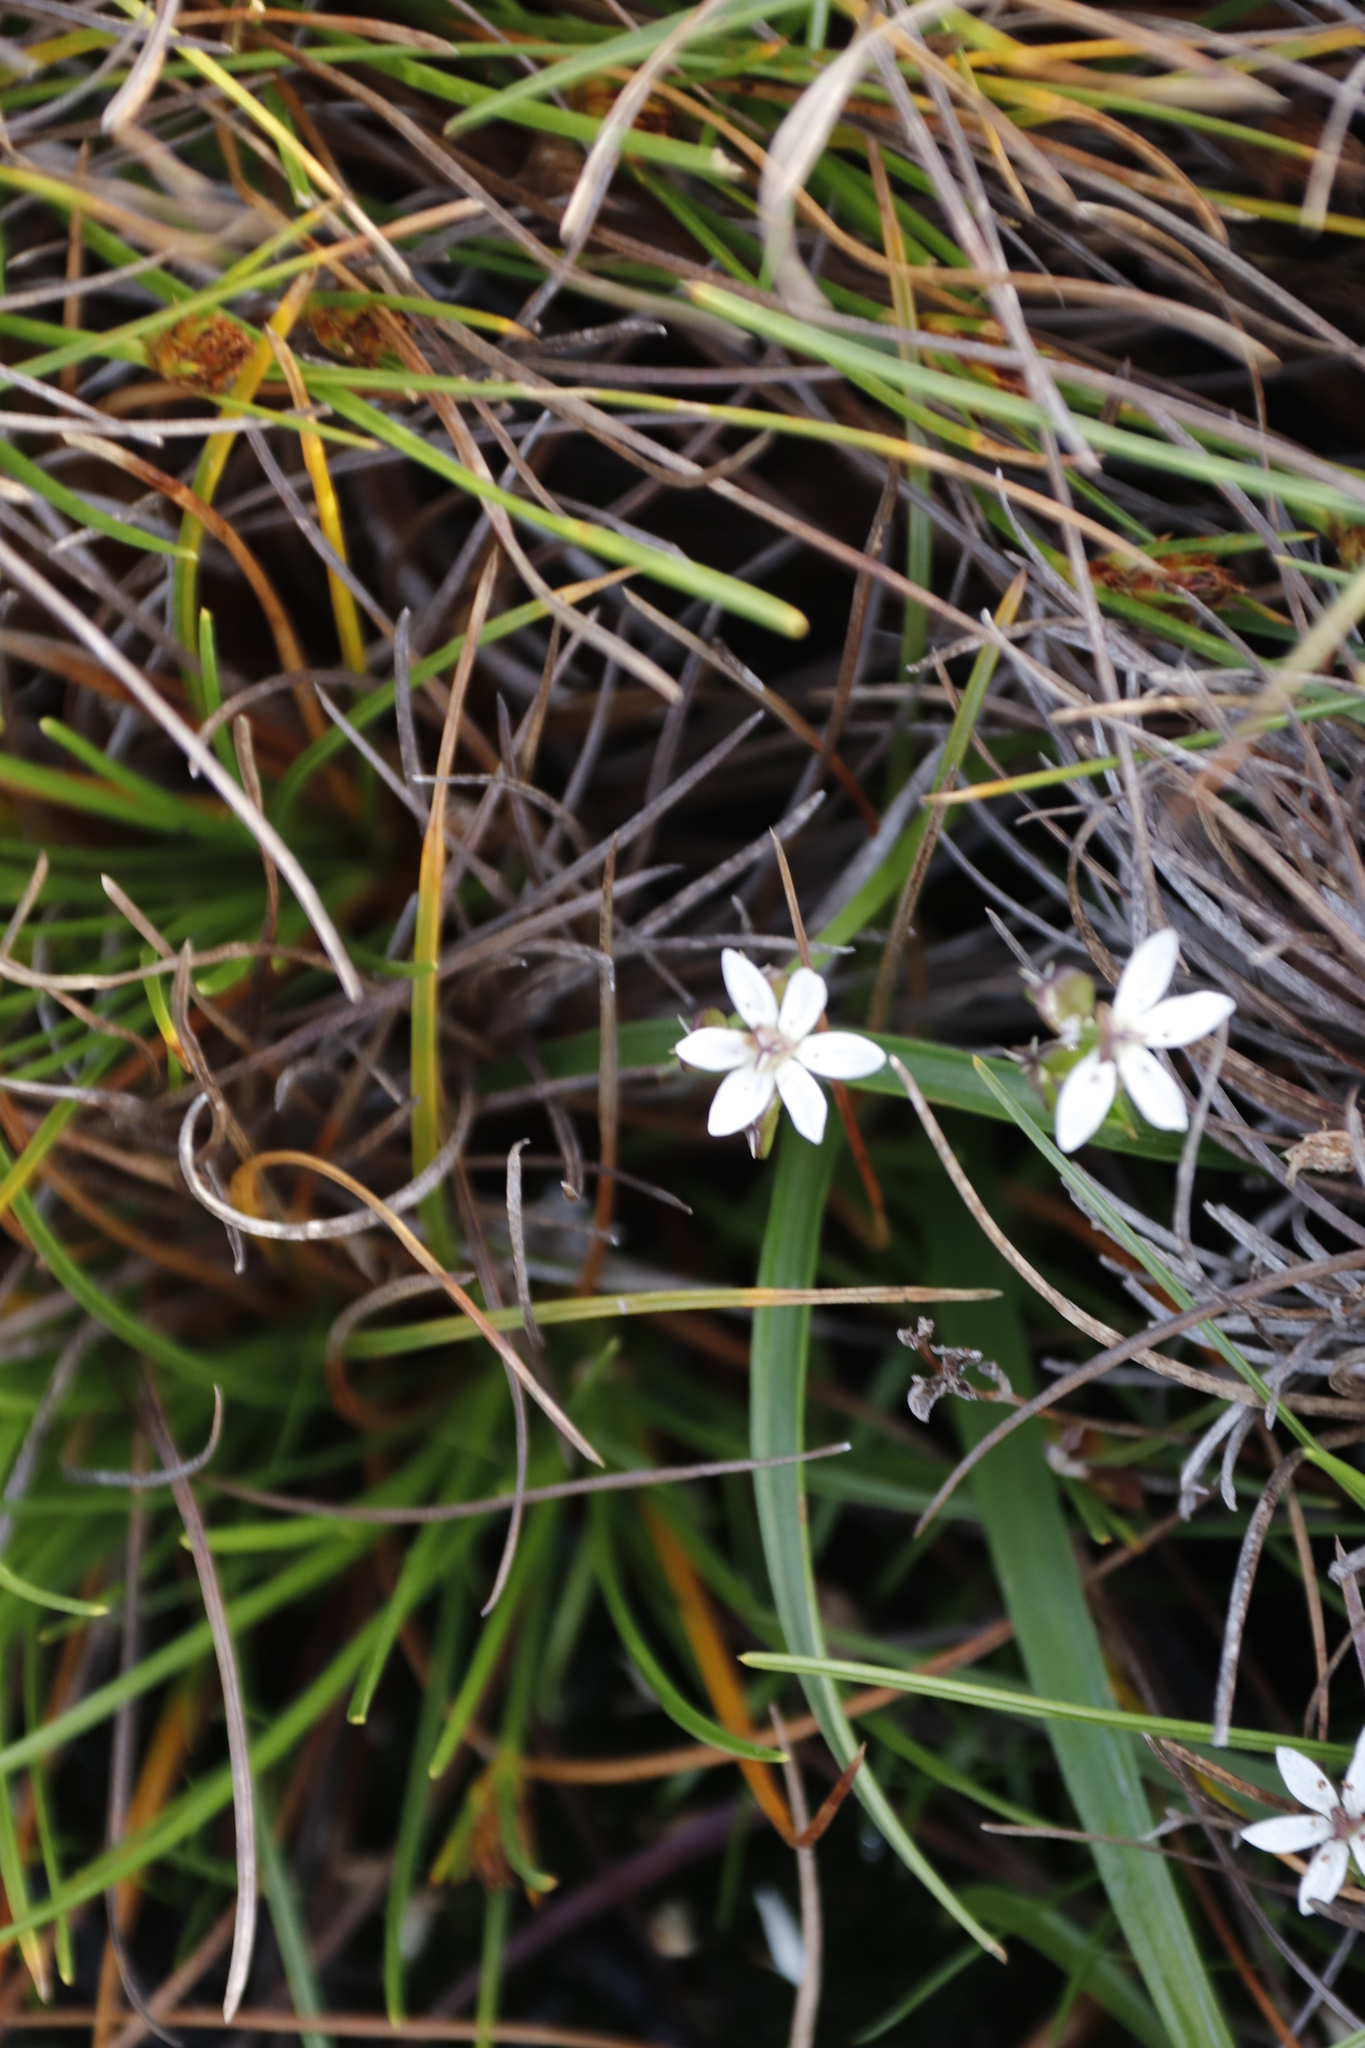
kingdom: Plantae
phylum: Tracheophyta
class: Liliopsida
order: Liliales
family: Colchicaceae
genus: Wurmbea
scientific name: Wurmbea punctata
